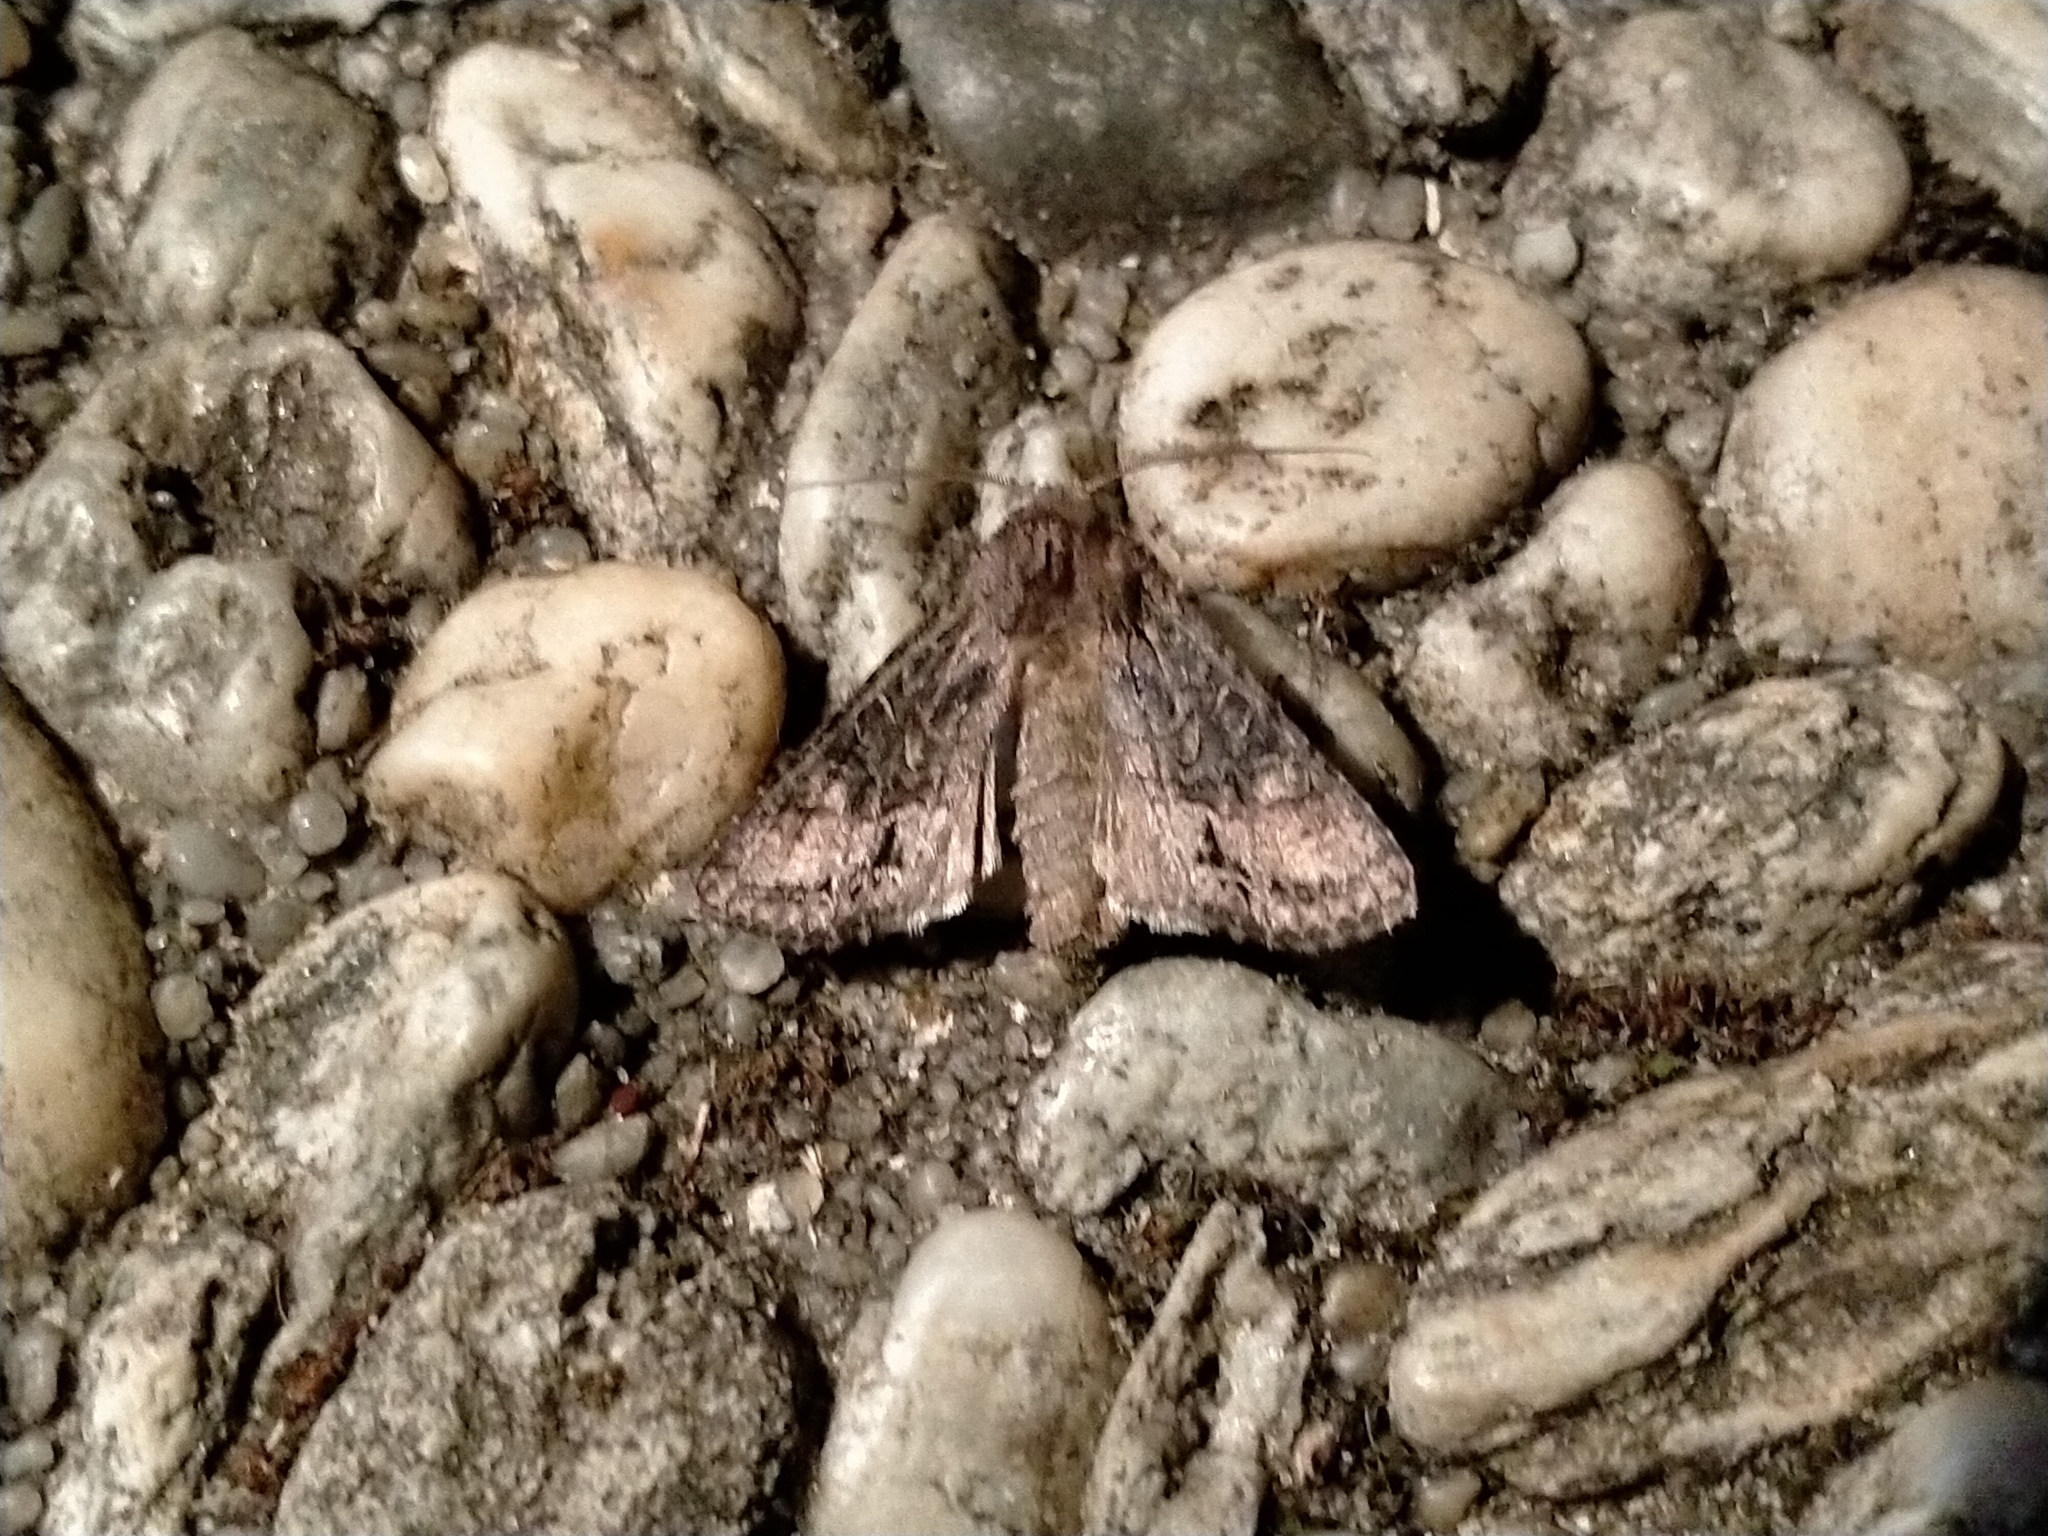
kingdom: Animalia
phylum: Arthropoda
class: Insecta
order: Lepidoptera
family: Noctuidae
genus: Ichneutica
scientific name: Ichneutica mutans
